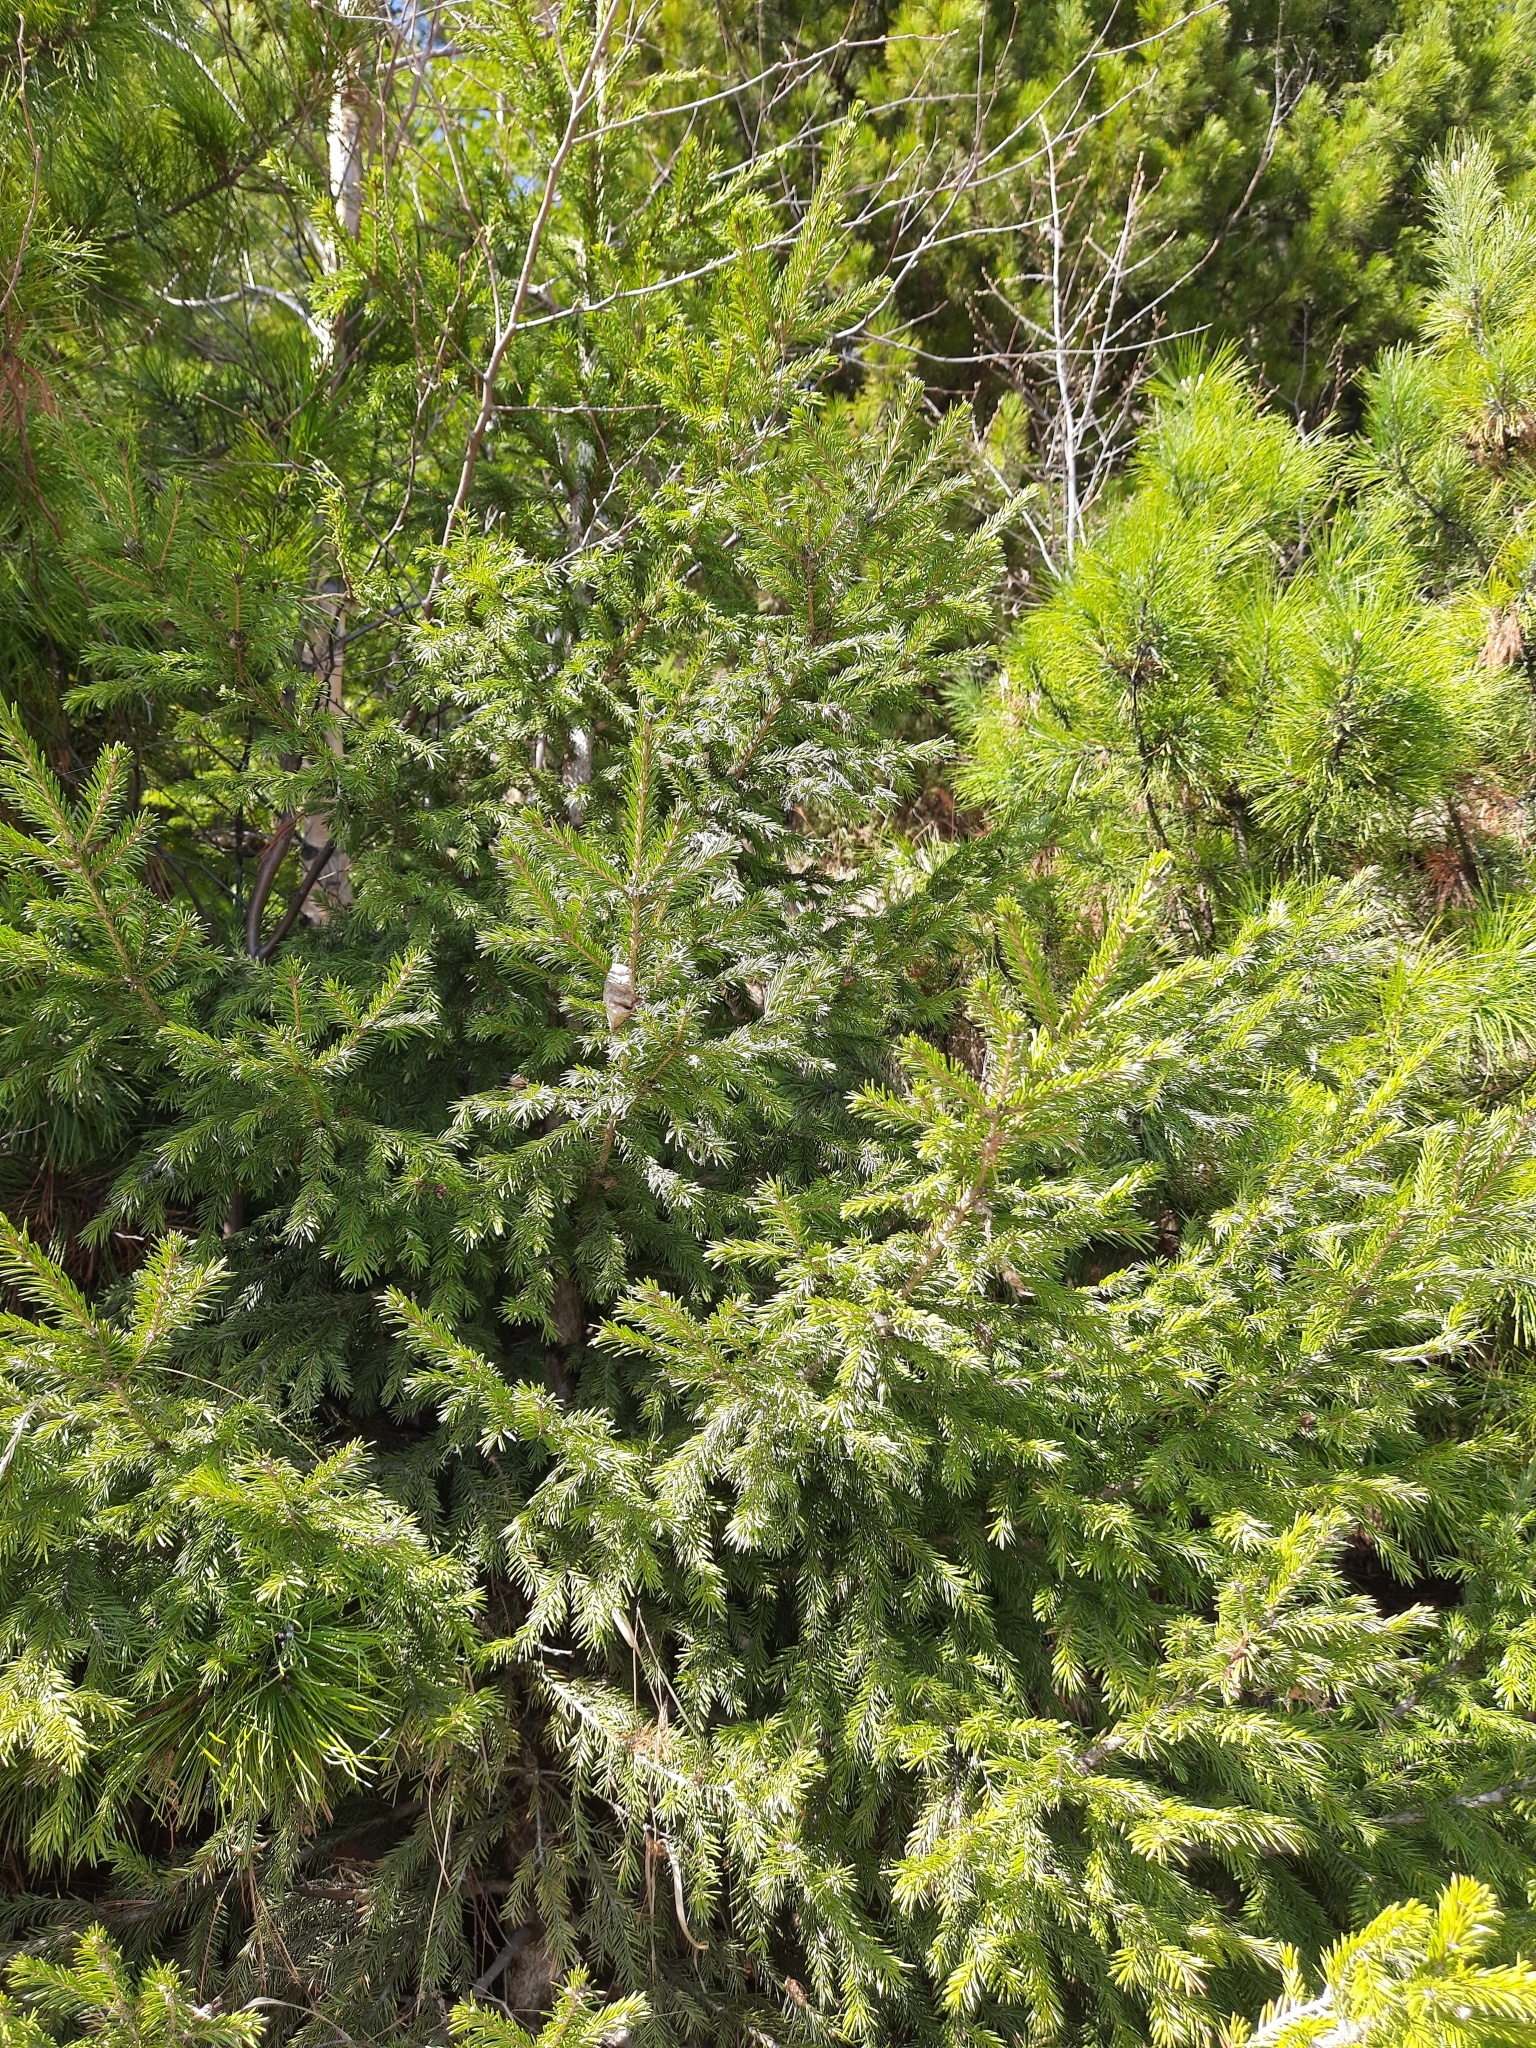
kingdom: Plantae
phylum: Tracheophyta
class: Pinopsida
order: Pinales
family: Pinaceae
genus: Picea
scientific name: Picea obovata
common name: Siberian spruce
